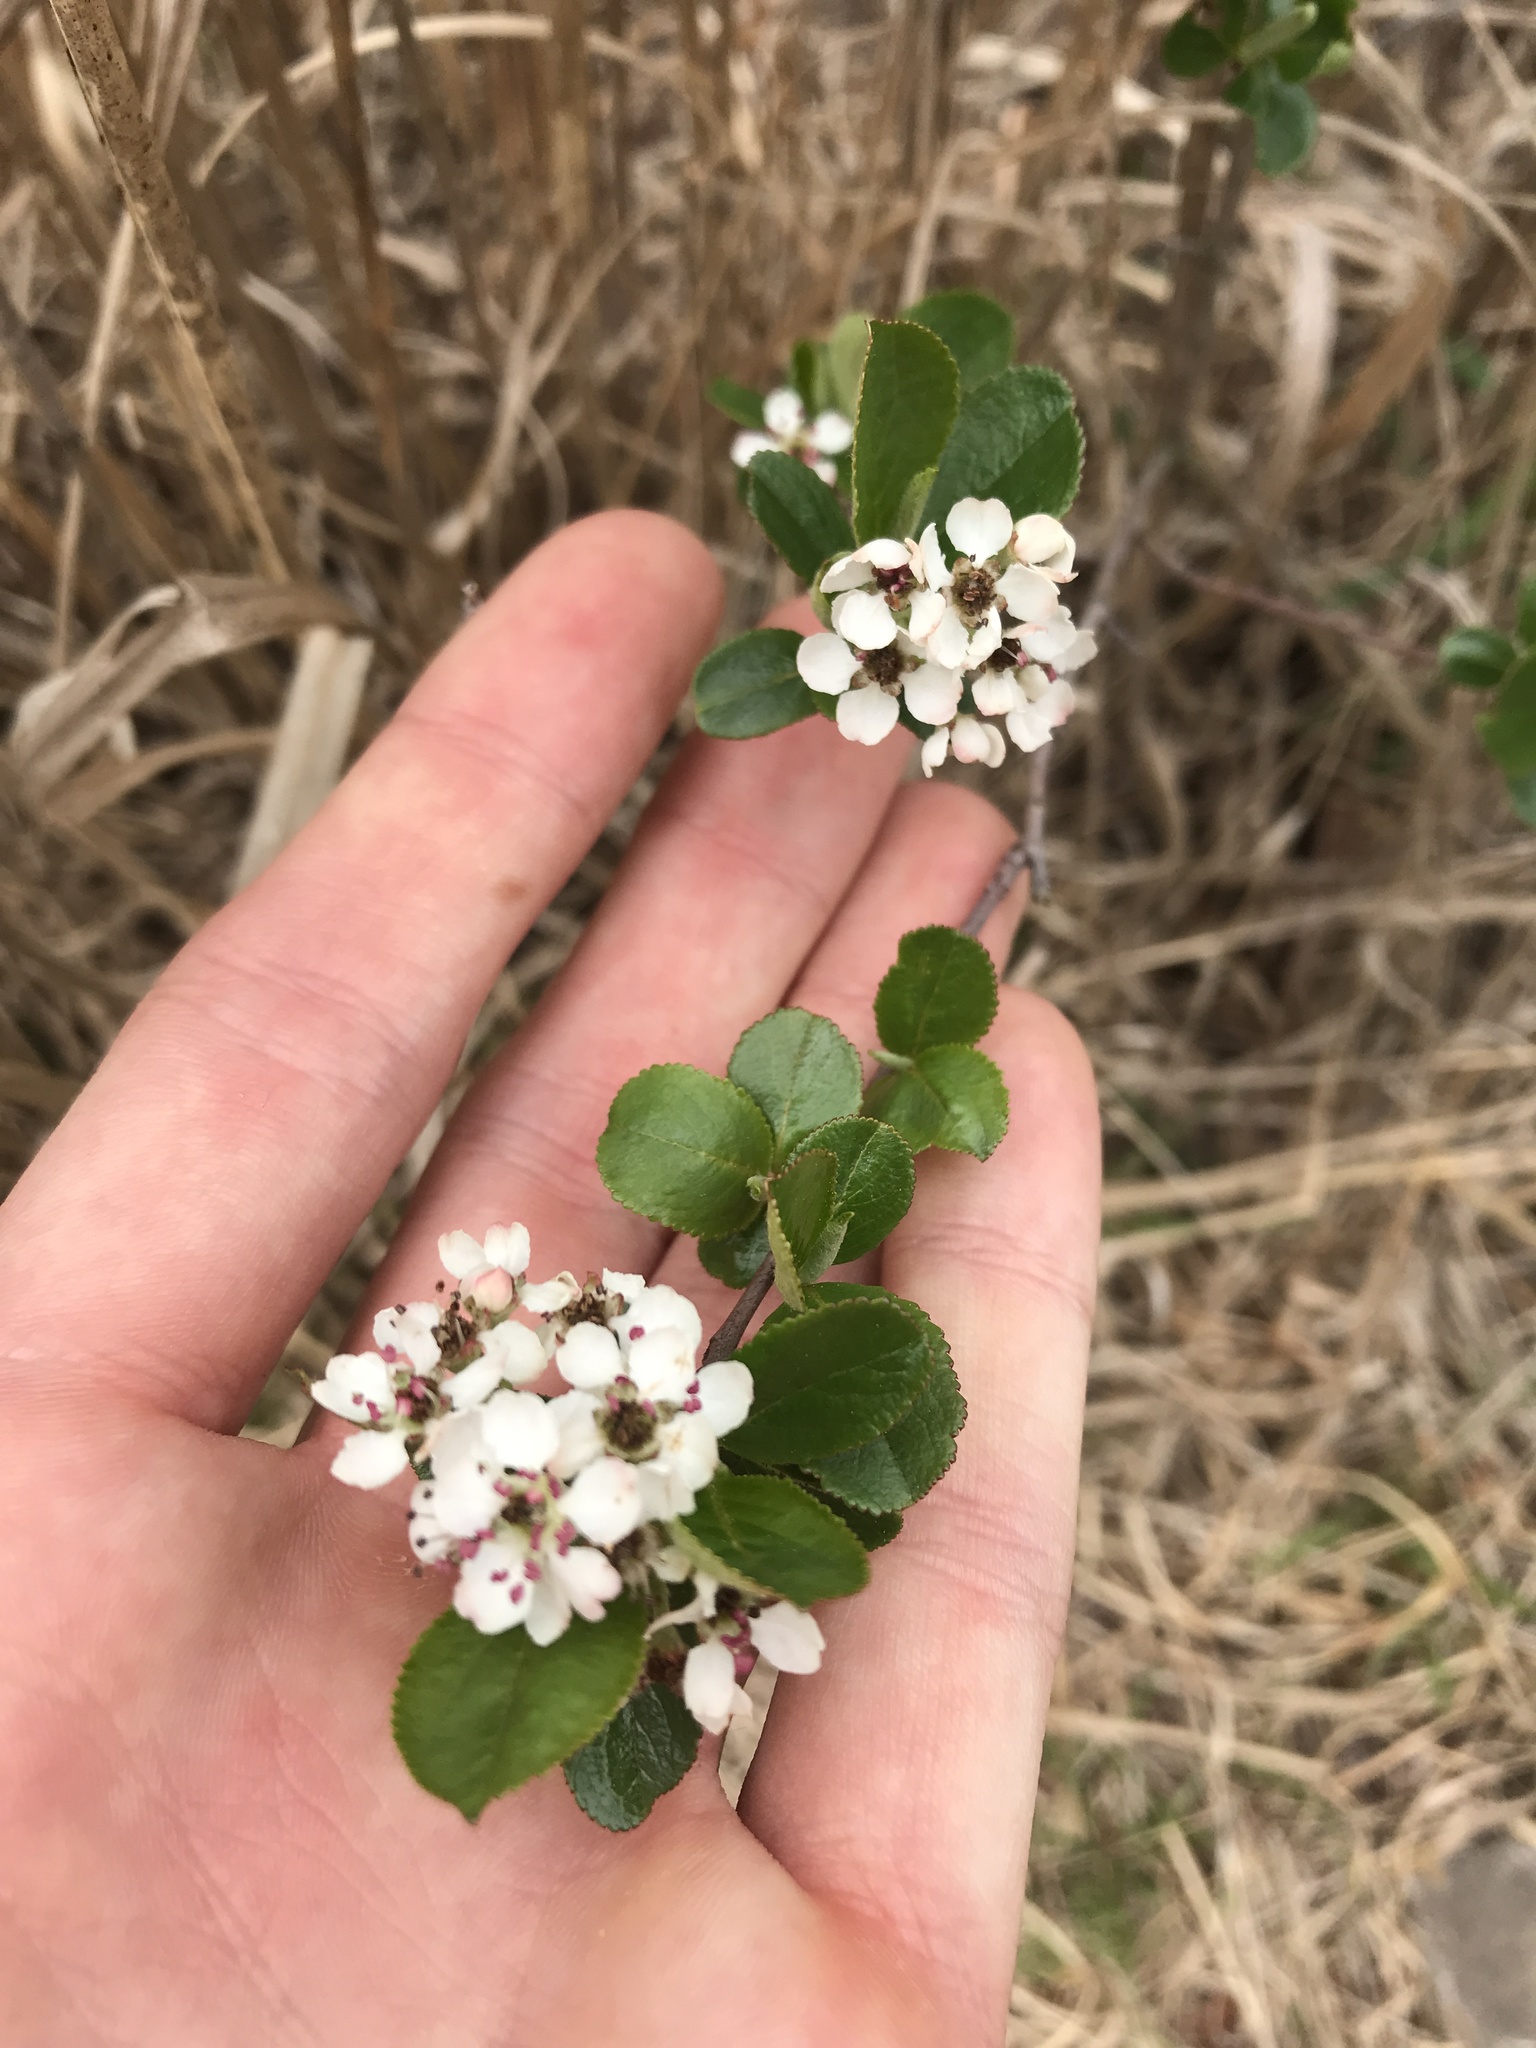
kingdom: Plantae
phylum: Tracheophyta
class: Magnoliopsida
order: Rosales
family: Rosaceae
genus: Aronia
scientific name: Aronia arbutifolia
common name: Red chokeberry
